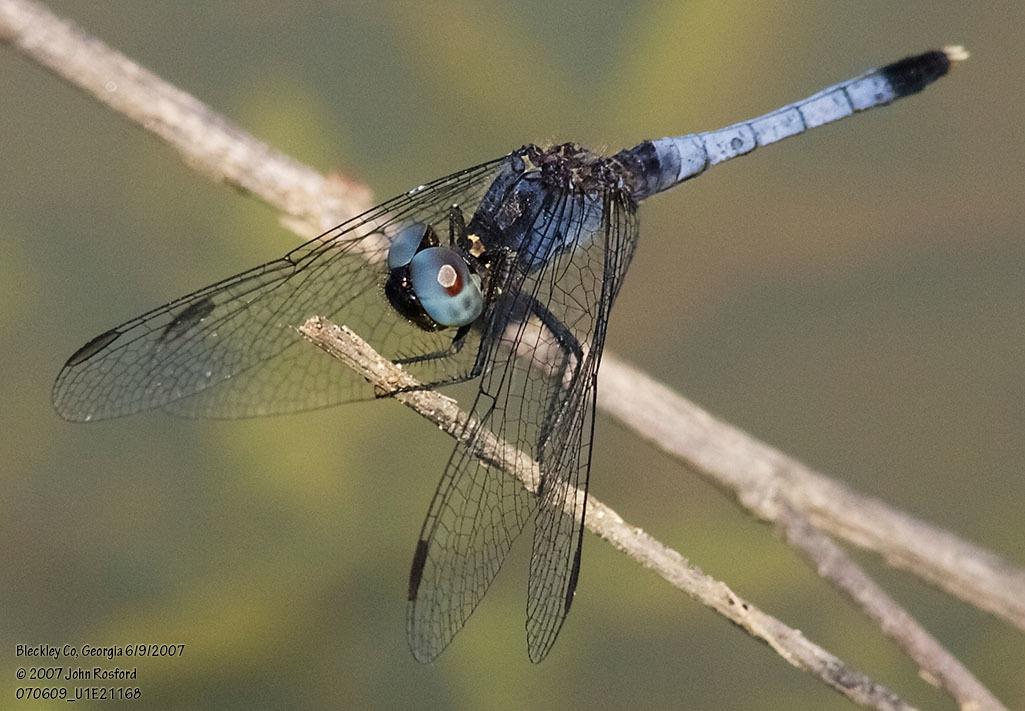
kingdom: Animalia
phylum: Arthropoda
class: Insecta
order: Odonata
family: Libellulidae
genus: Erythrodiplax
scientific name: Erythrodiplax minuscula
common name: Little blue dragonlet
